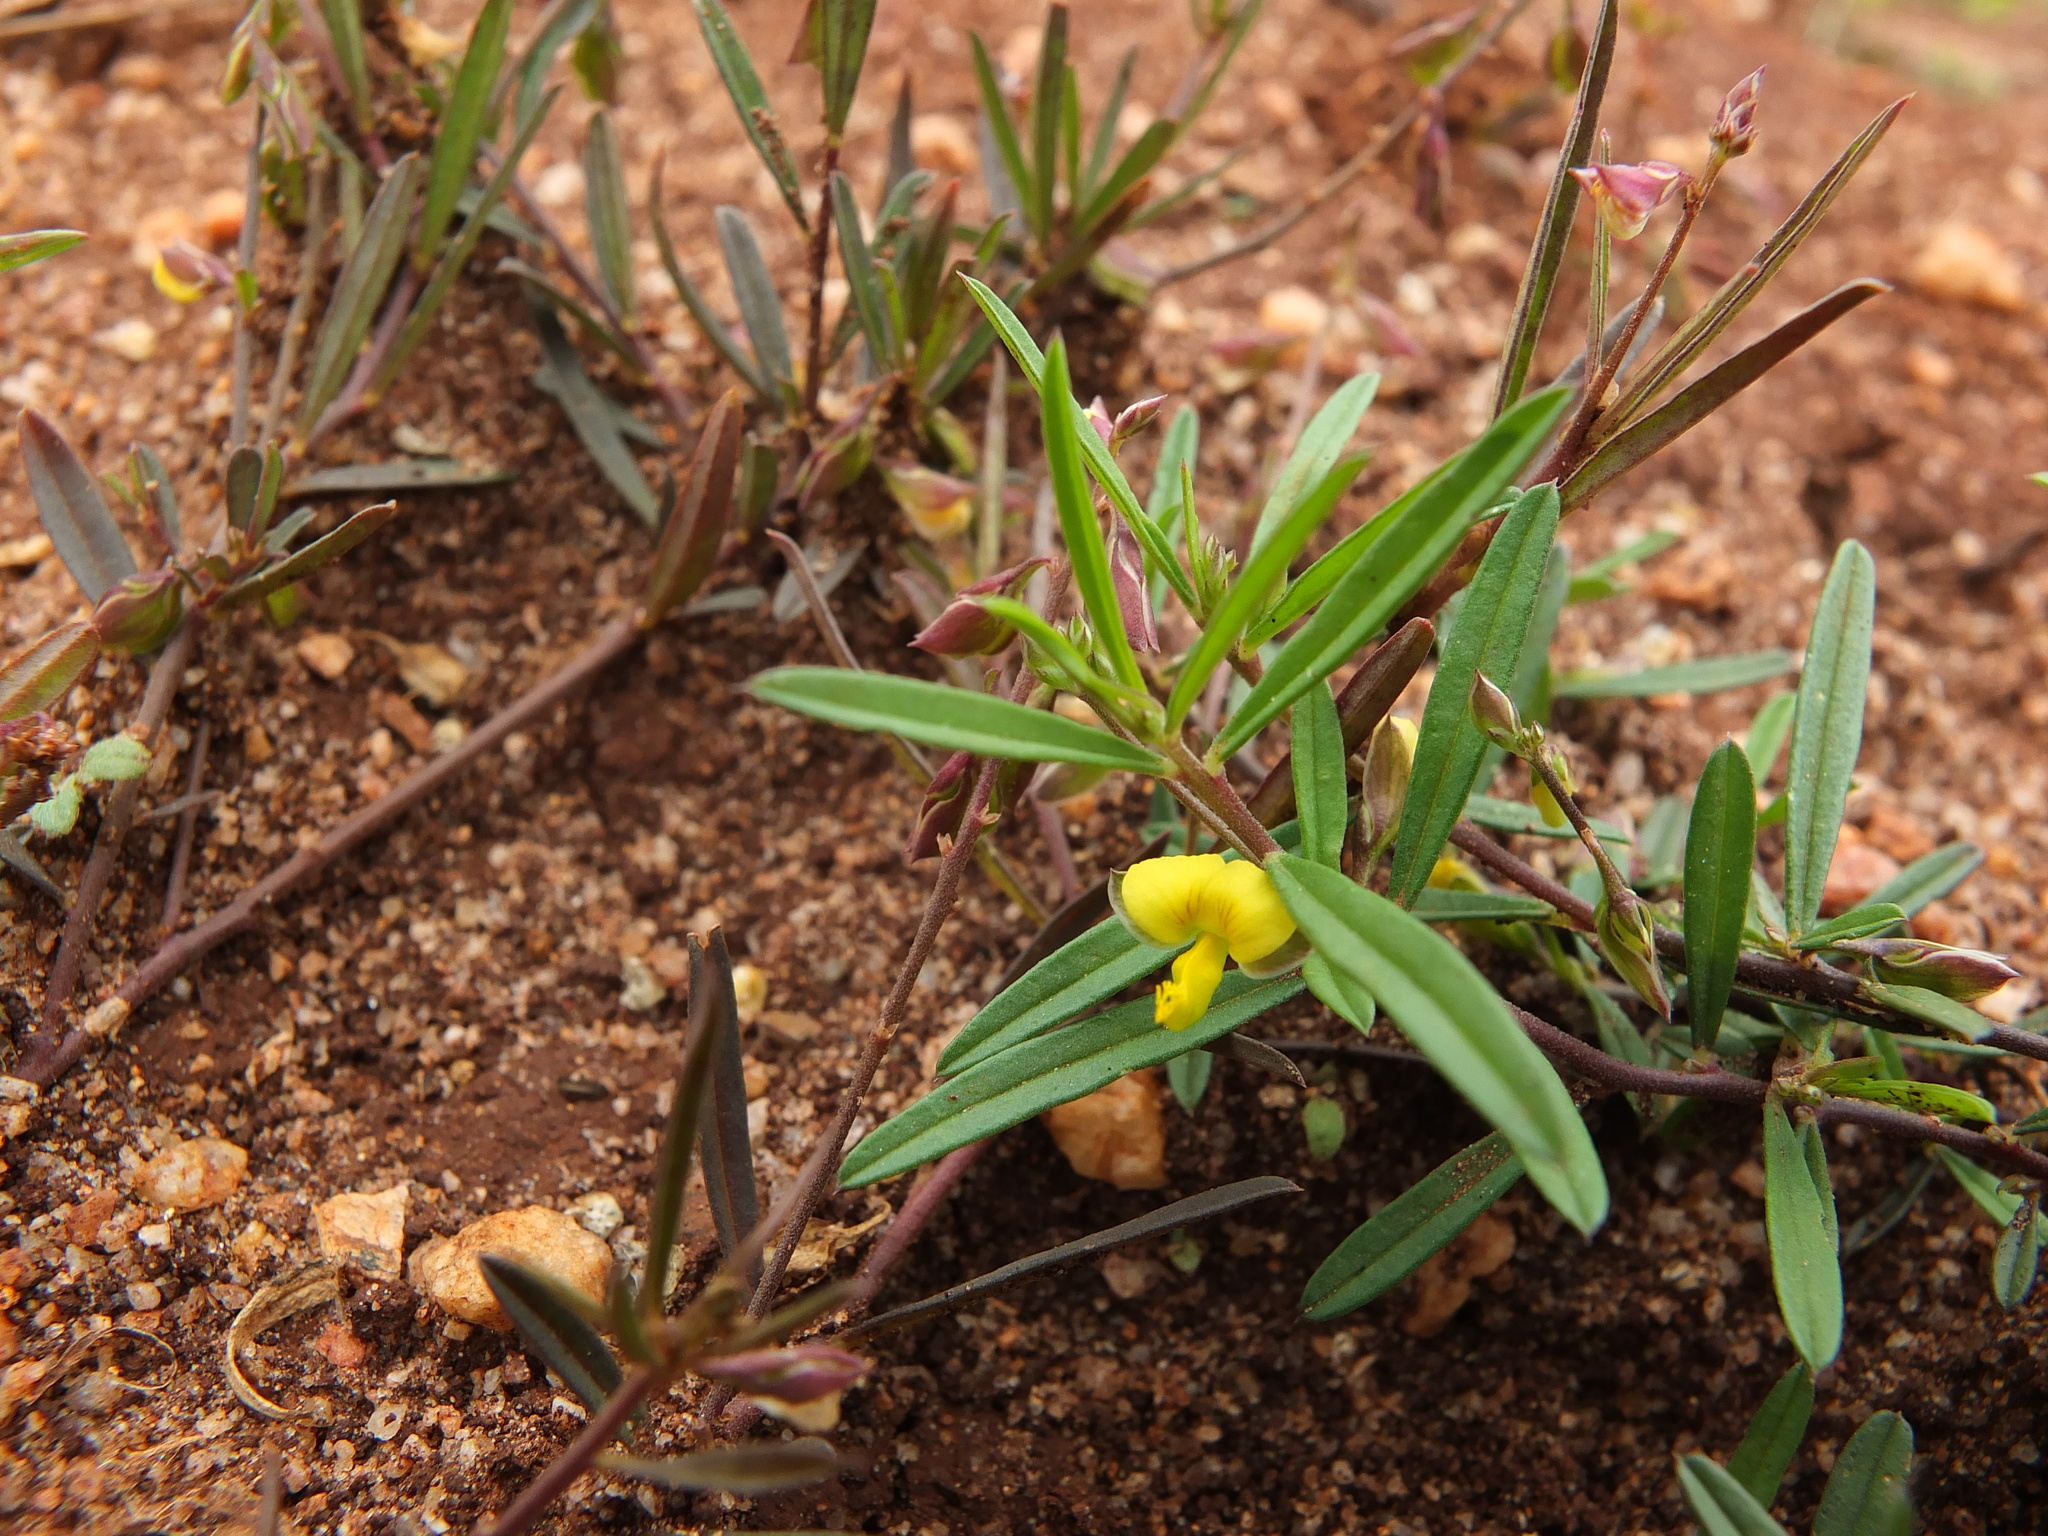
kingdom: Plantae
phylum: Tracheophyta
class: Magnoliopsida
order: Fabales
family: Polygalaceae
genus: Polygala
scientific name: Polygala
